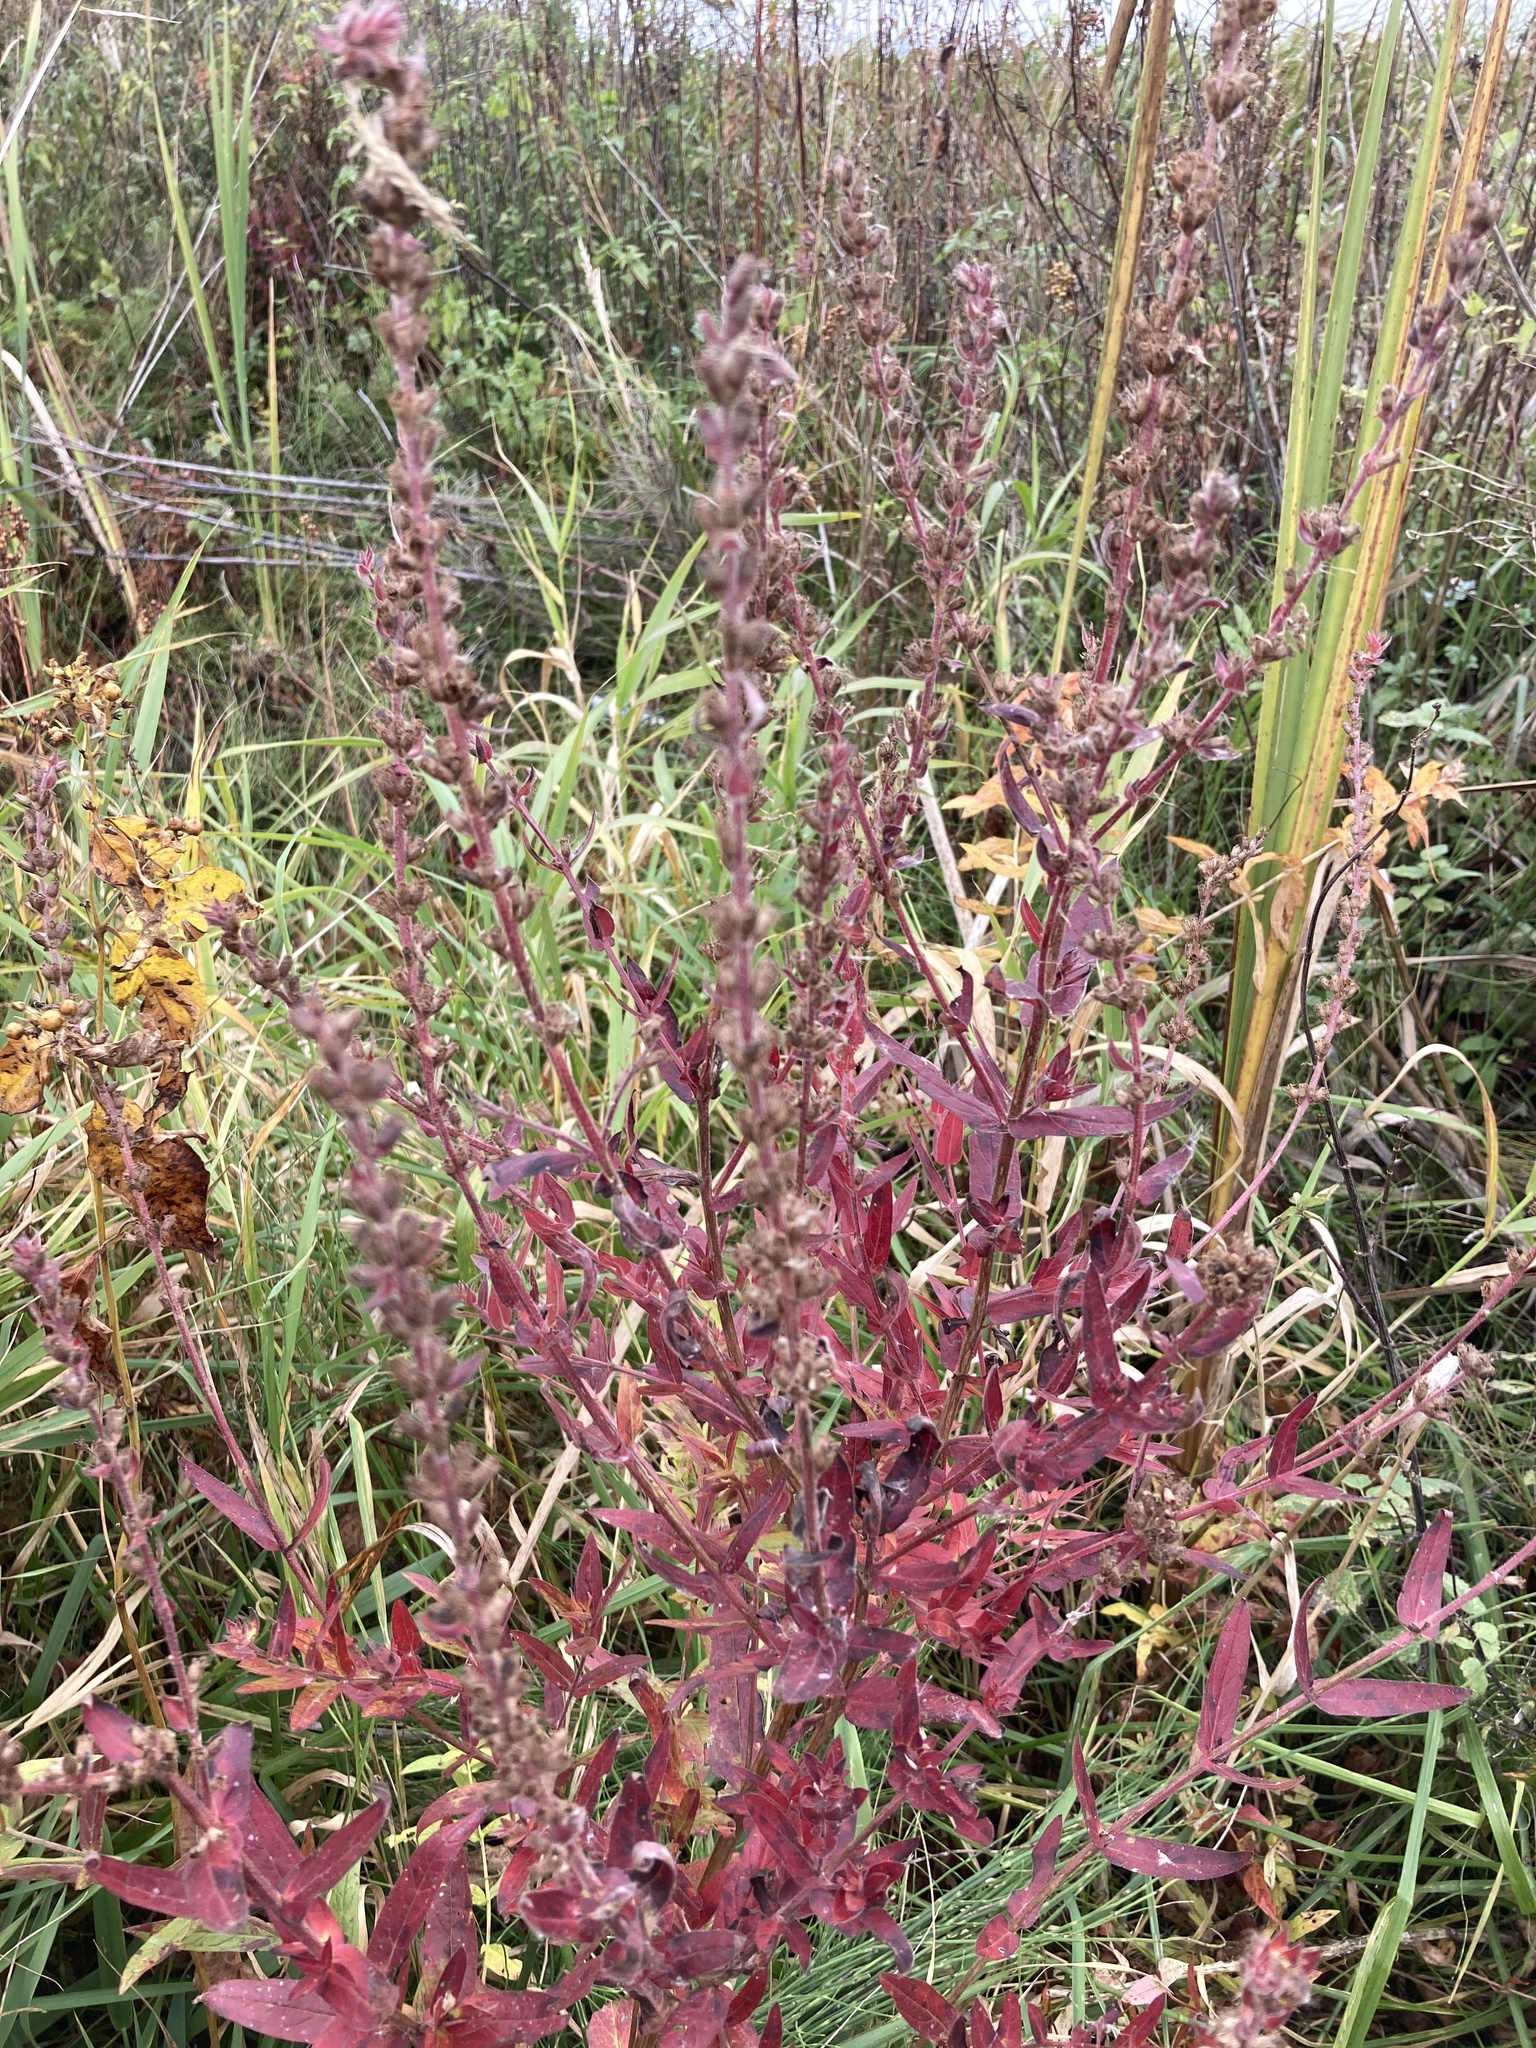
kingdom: Plantae
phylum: Tracheophyta
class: Magnoliopsida
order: Myrtales
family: Lythraceae
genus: Lythrum
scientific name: Lythrum salicaria
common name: Purple loosestrife
